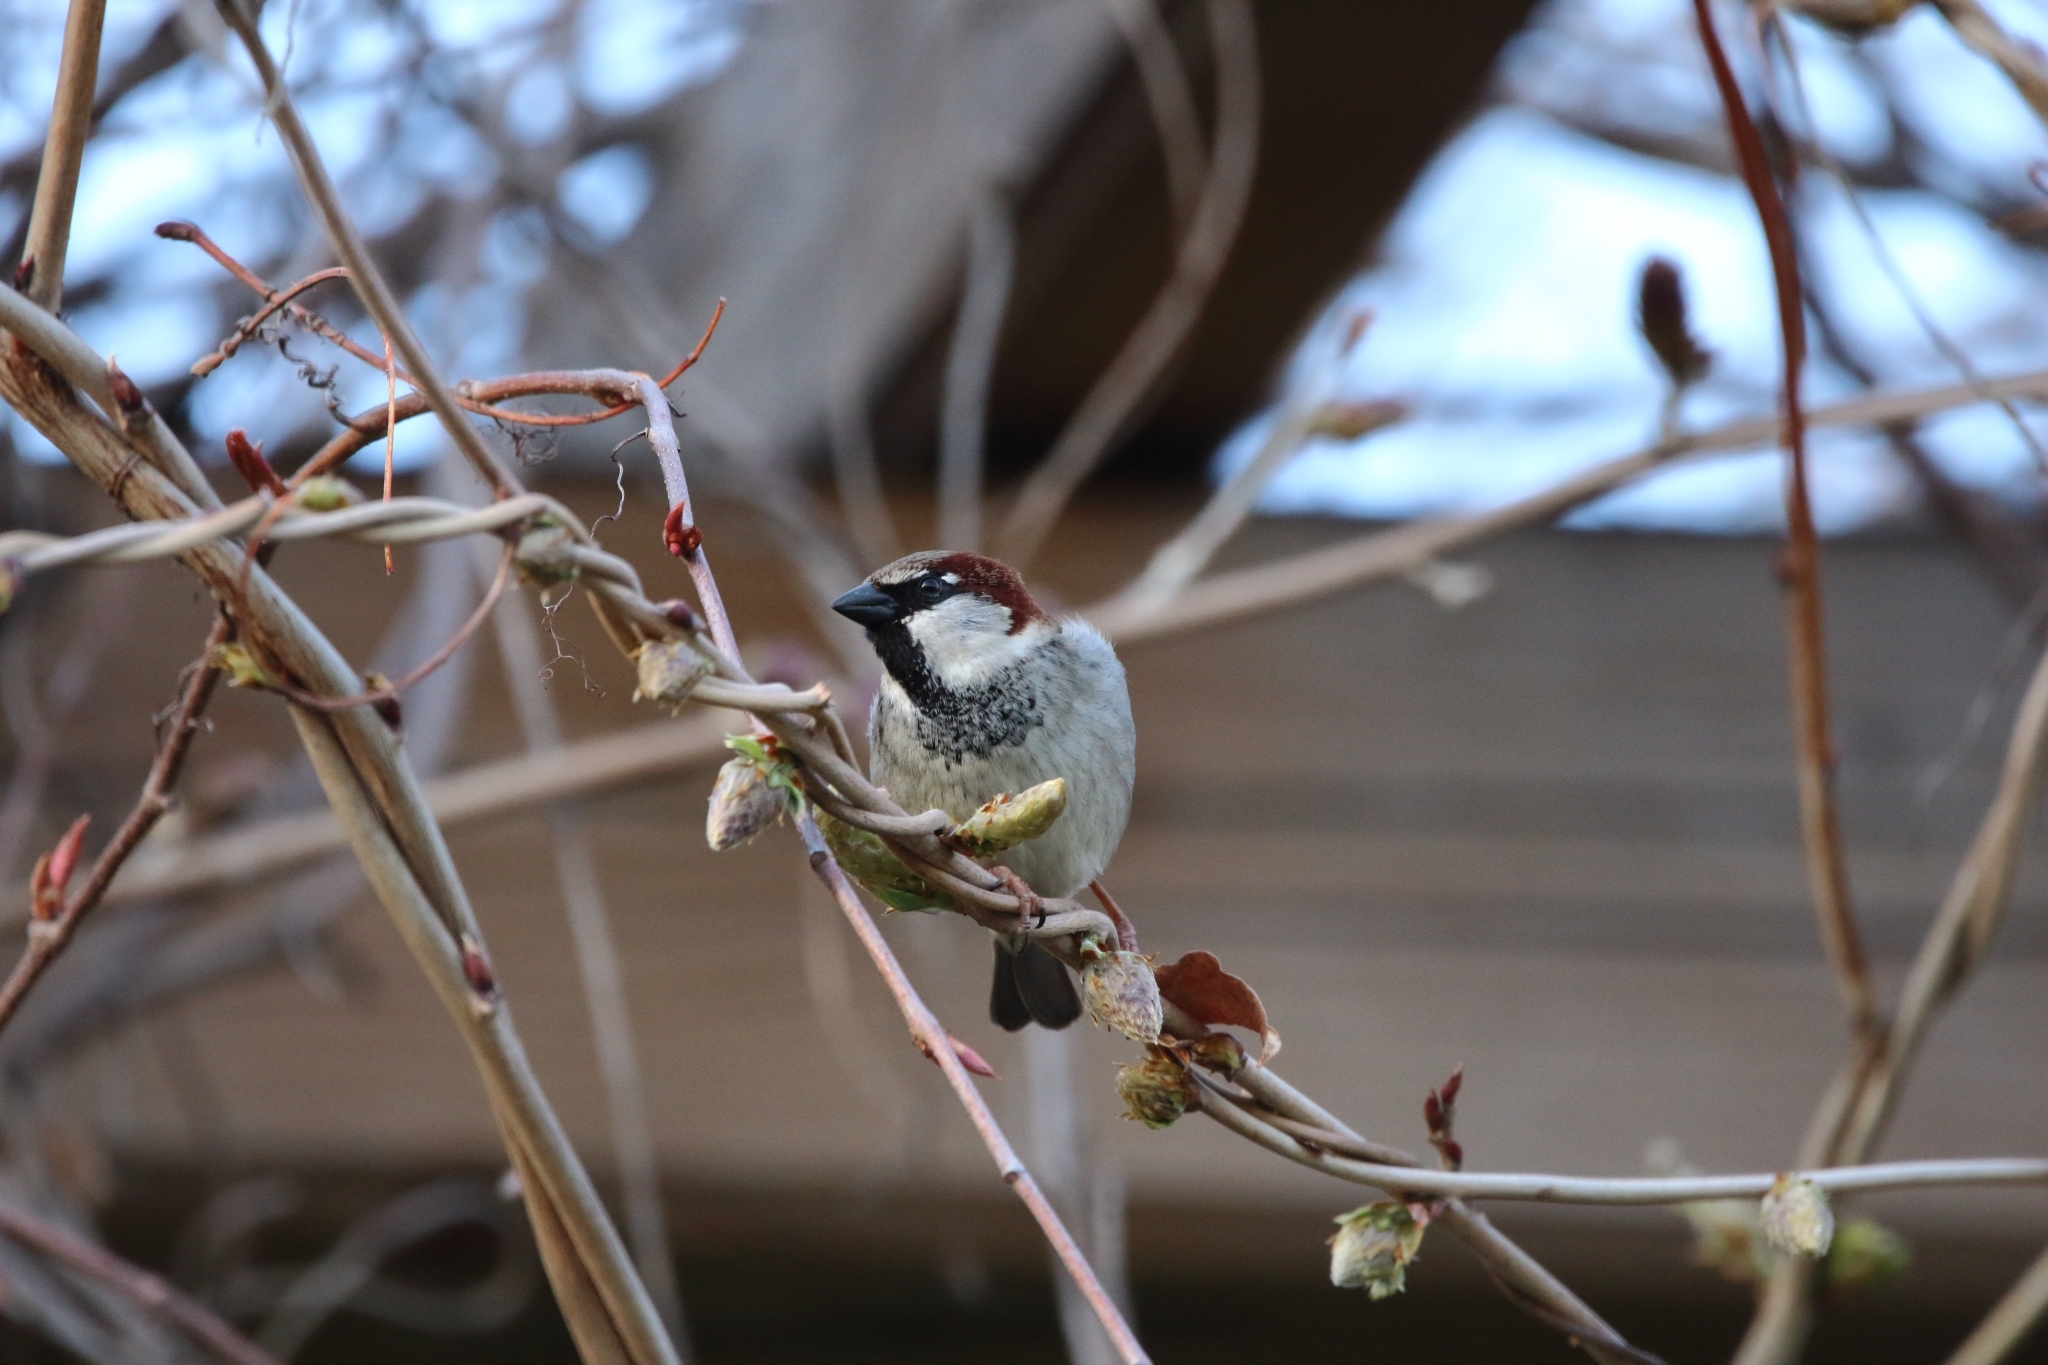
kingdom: Animalia
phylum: Chordata
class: Aves
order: Passeriformes
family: Passeridae
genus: Passer
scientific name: Passer domesticus
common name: House sparrow
